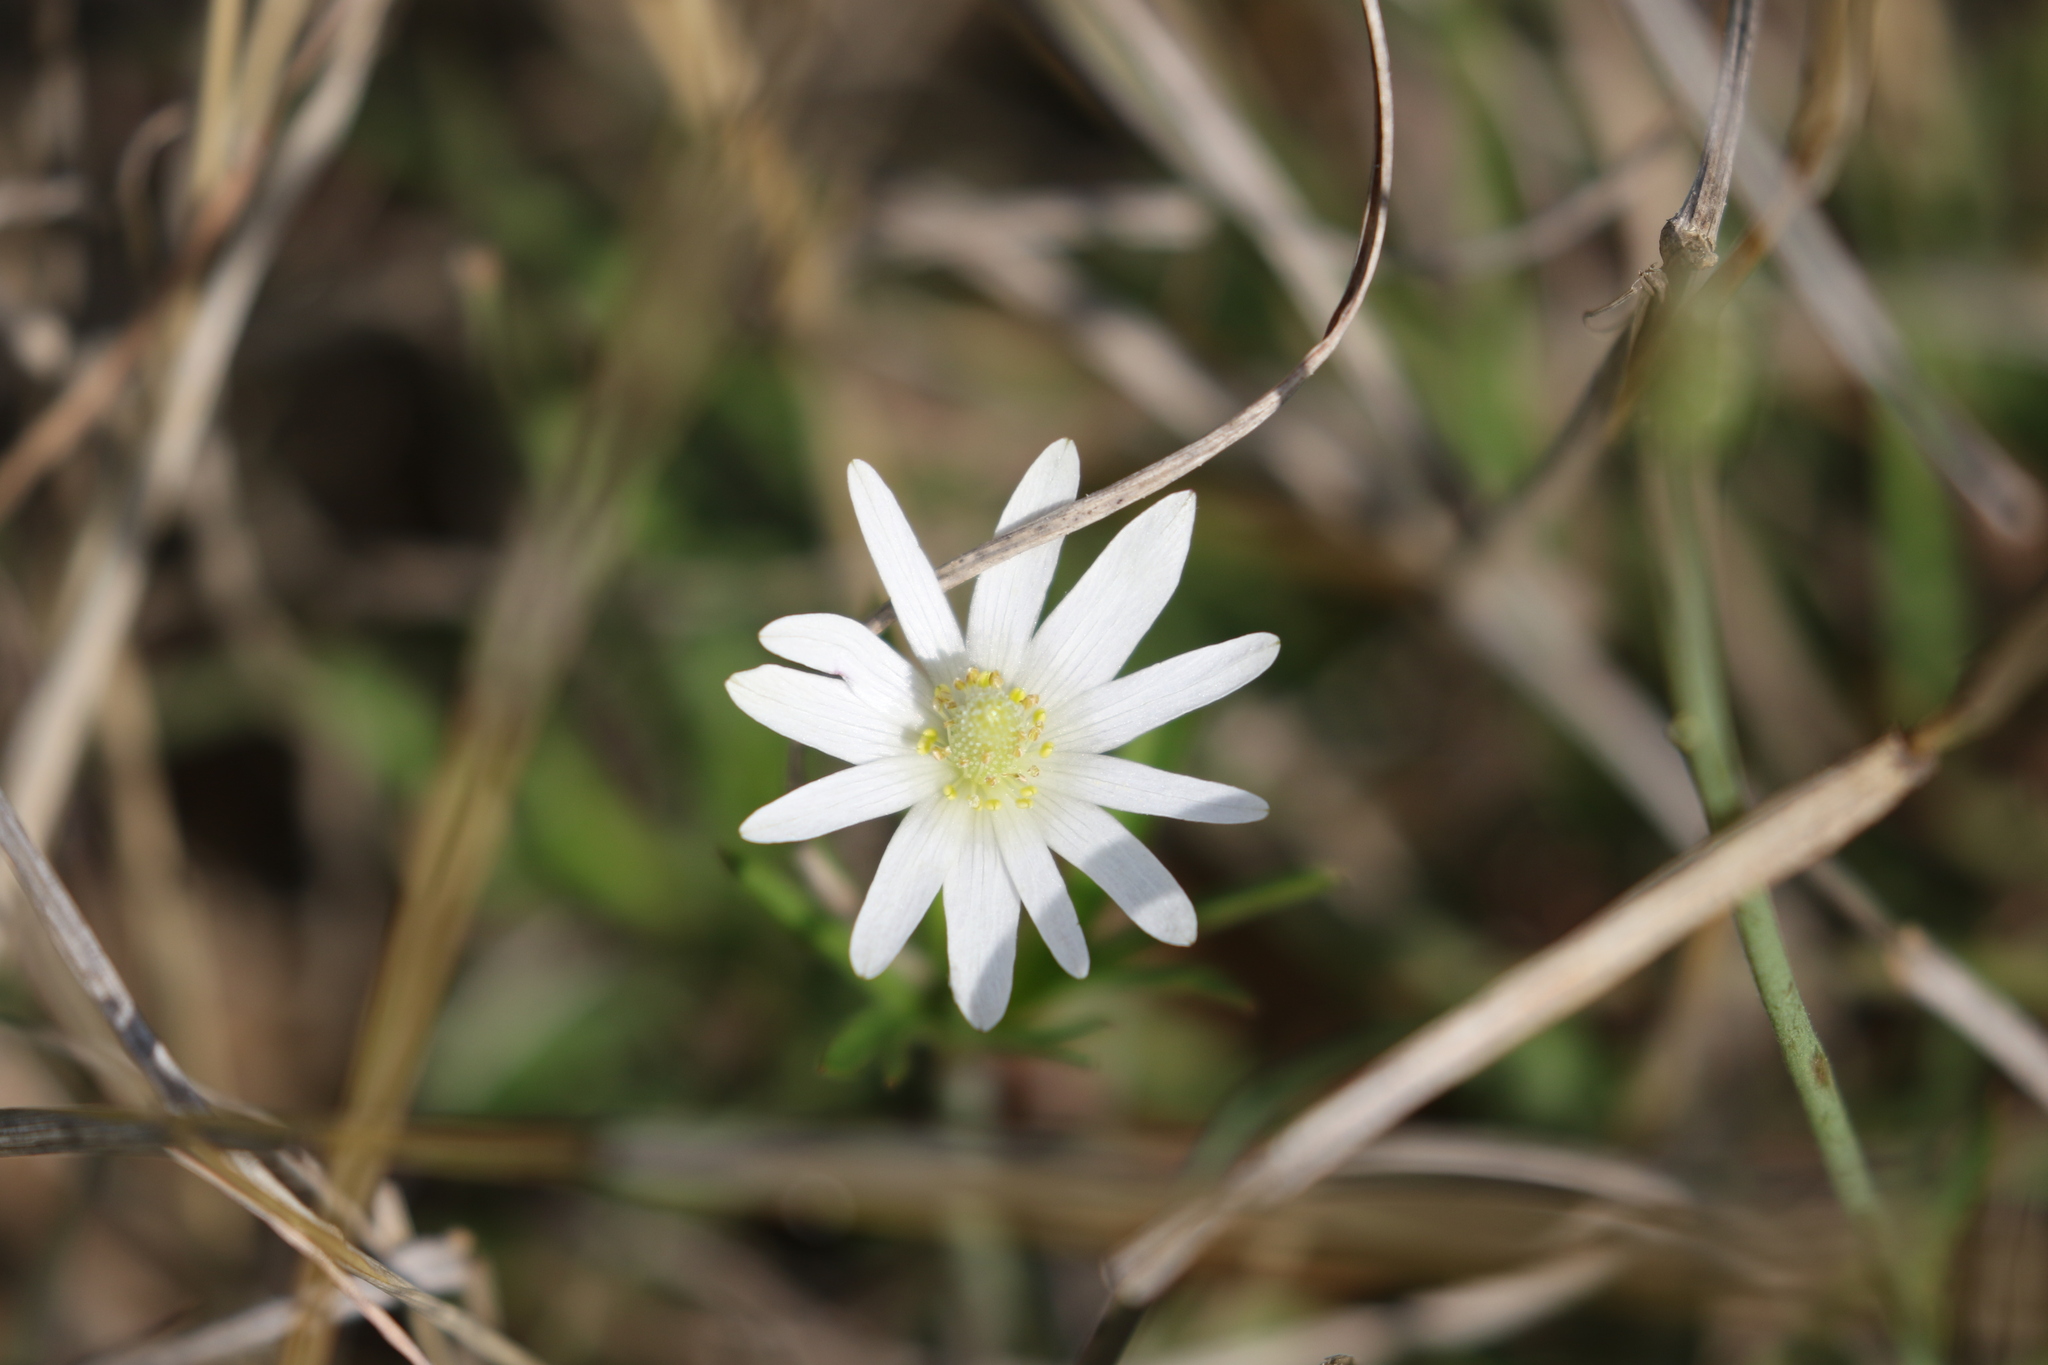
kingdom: Plantae
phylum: Tracheophyta
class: Magnoliopsida
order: Ranunculales
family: Ranunculaceae
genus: Anemone
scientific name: Anemone berlandieri
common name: Ten-petal anemone
